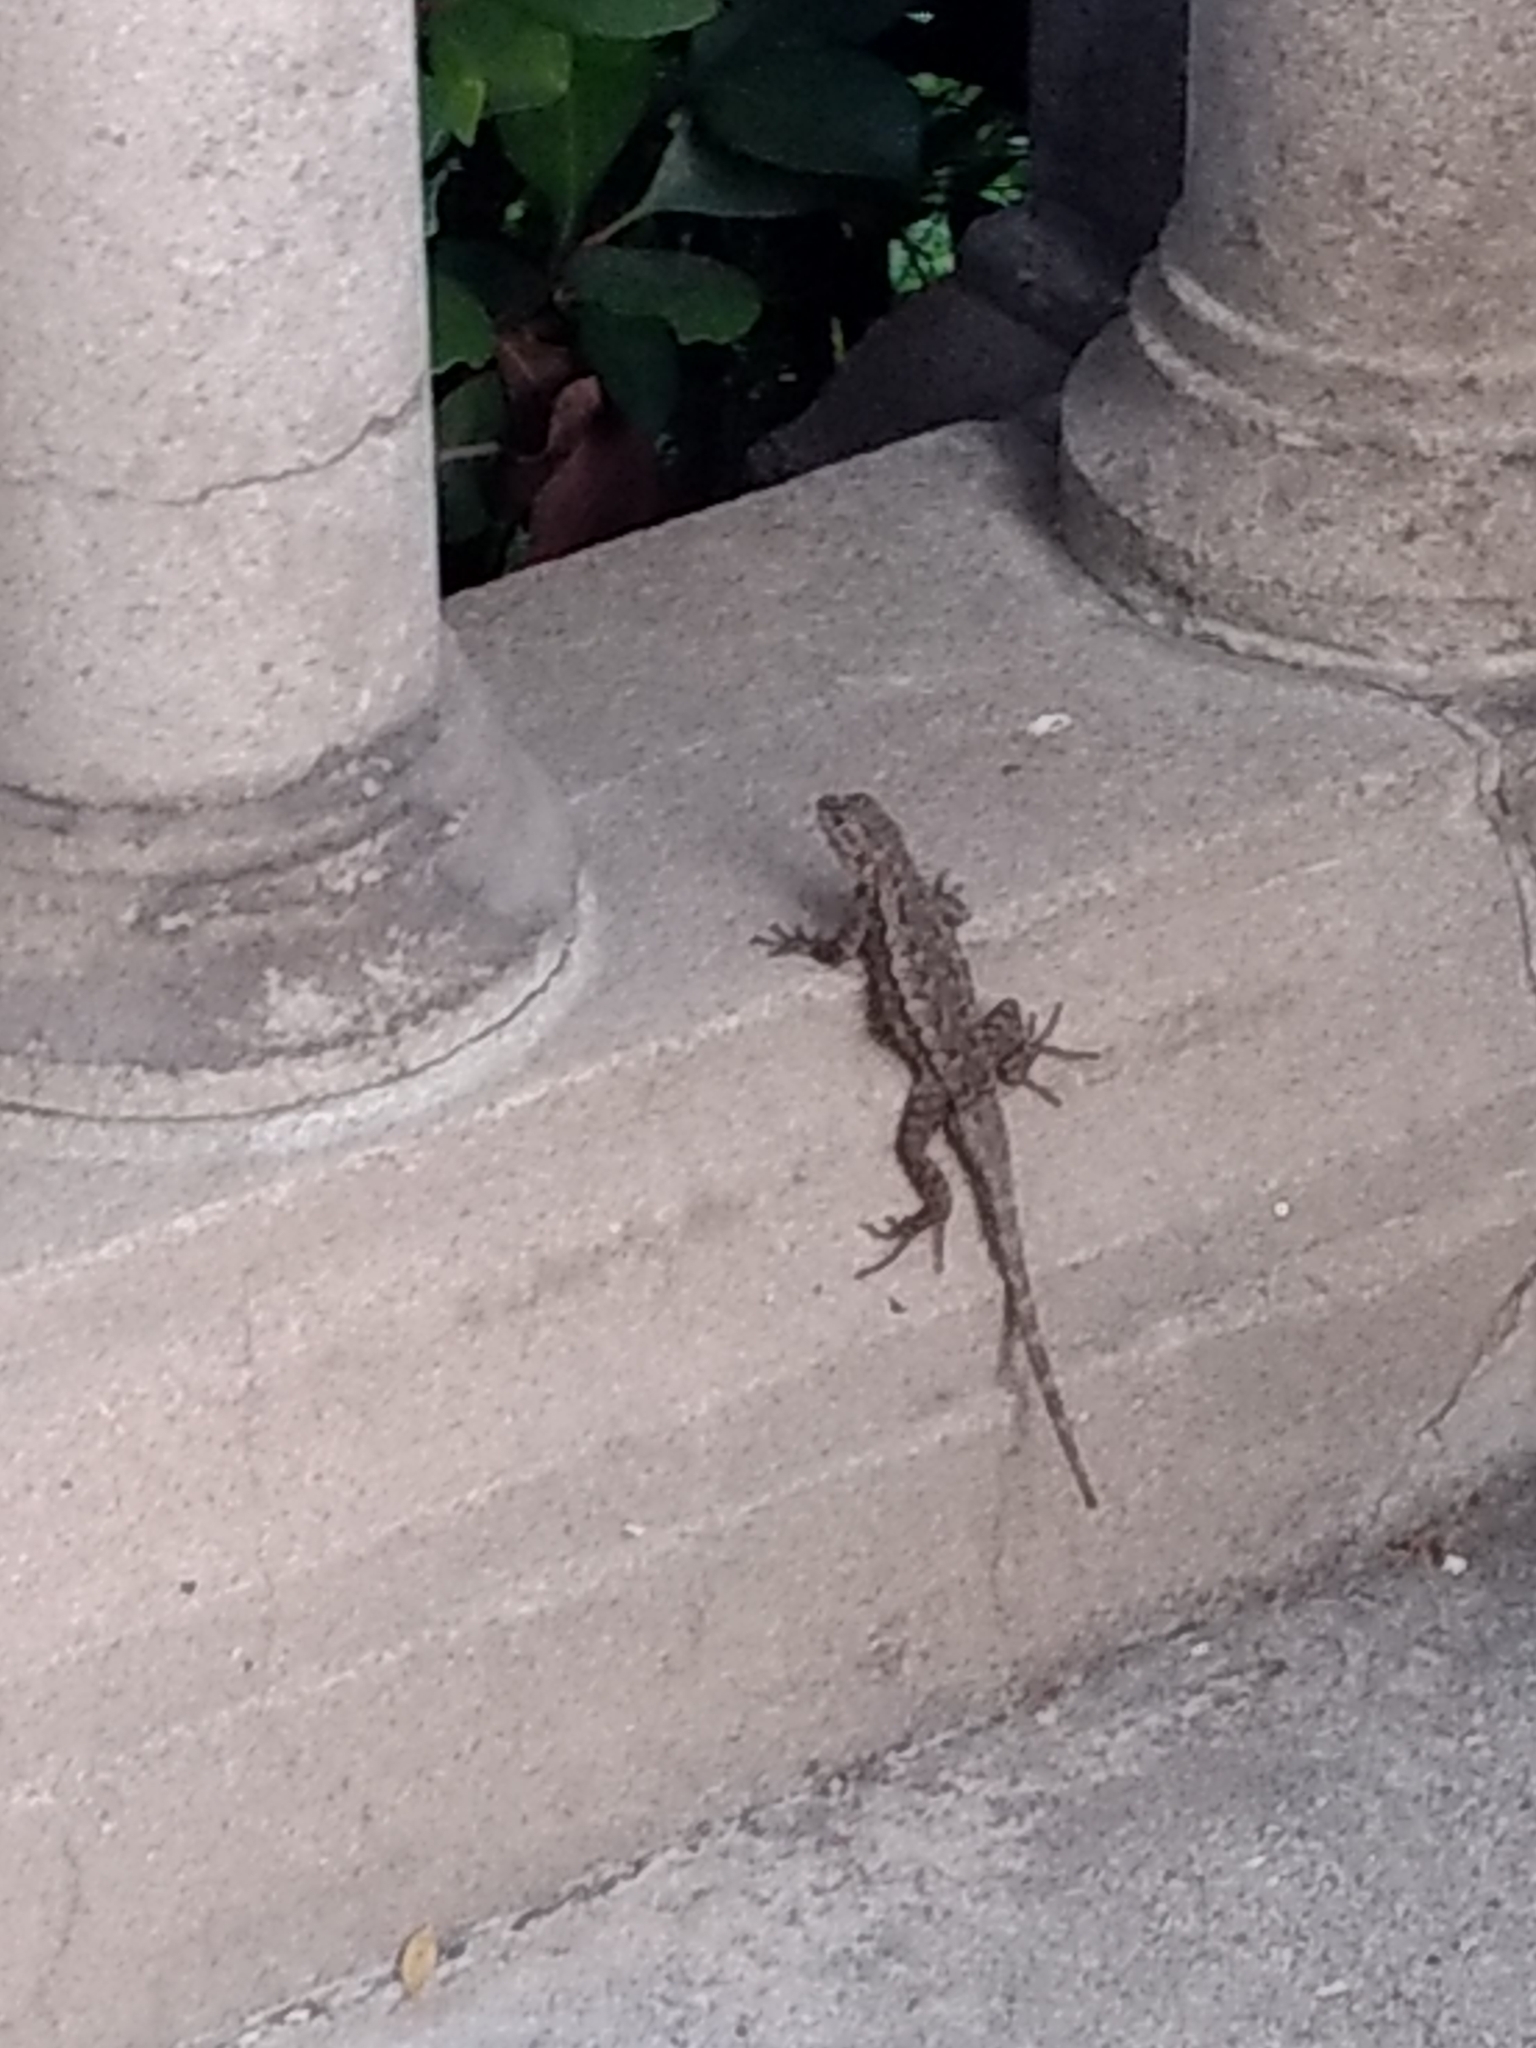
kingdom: Animalia
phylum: Chordata
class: Squamata
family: Phrynosomatidae
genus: Sceloporus
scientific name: Sceloporus occidentalis
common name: Western fence lizard
